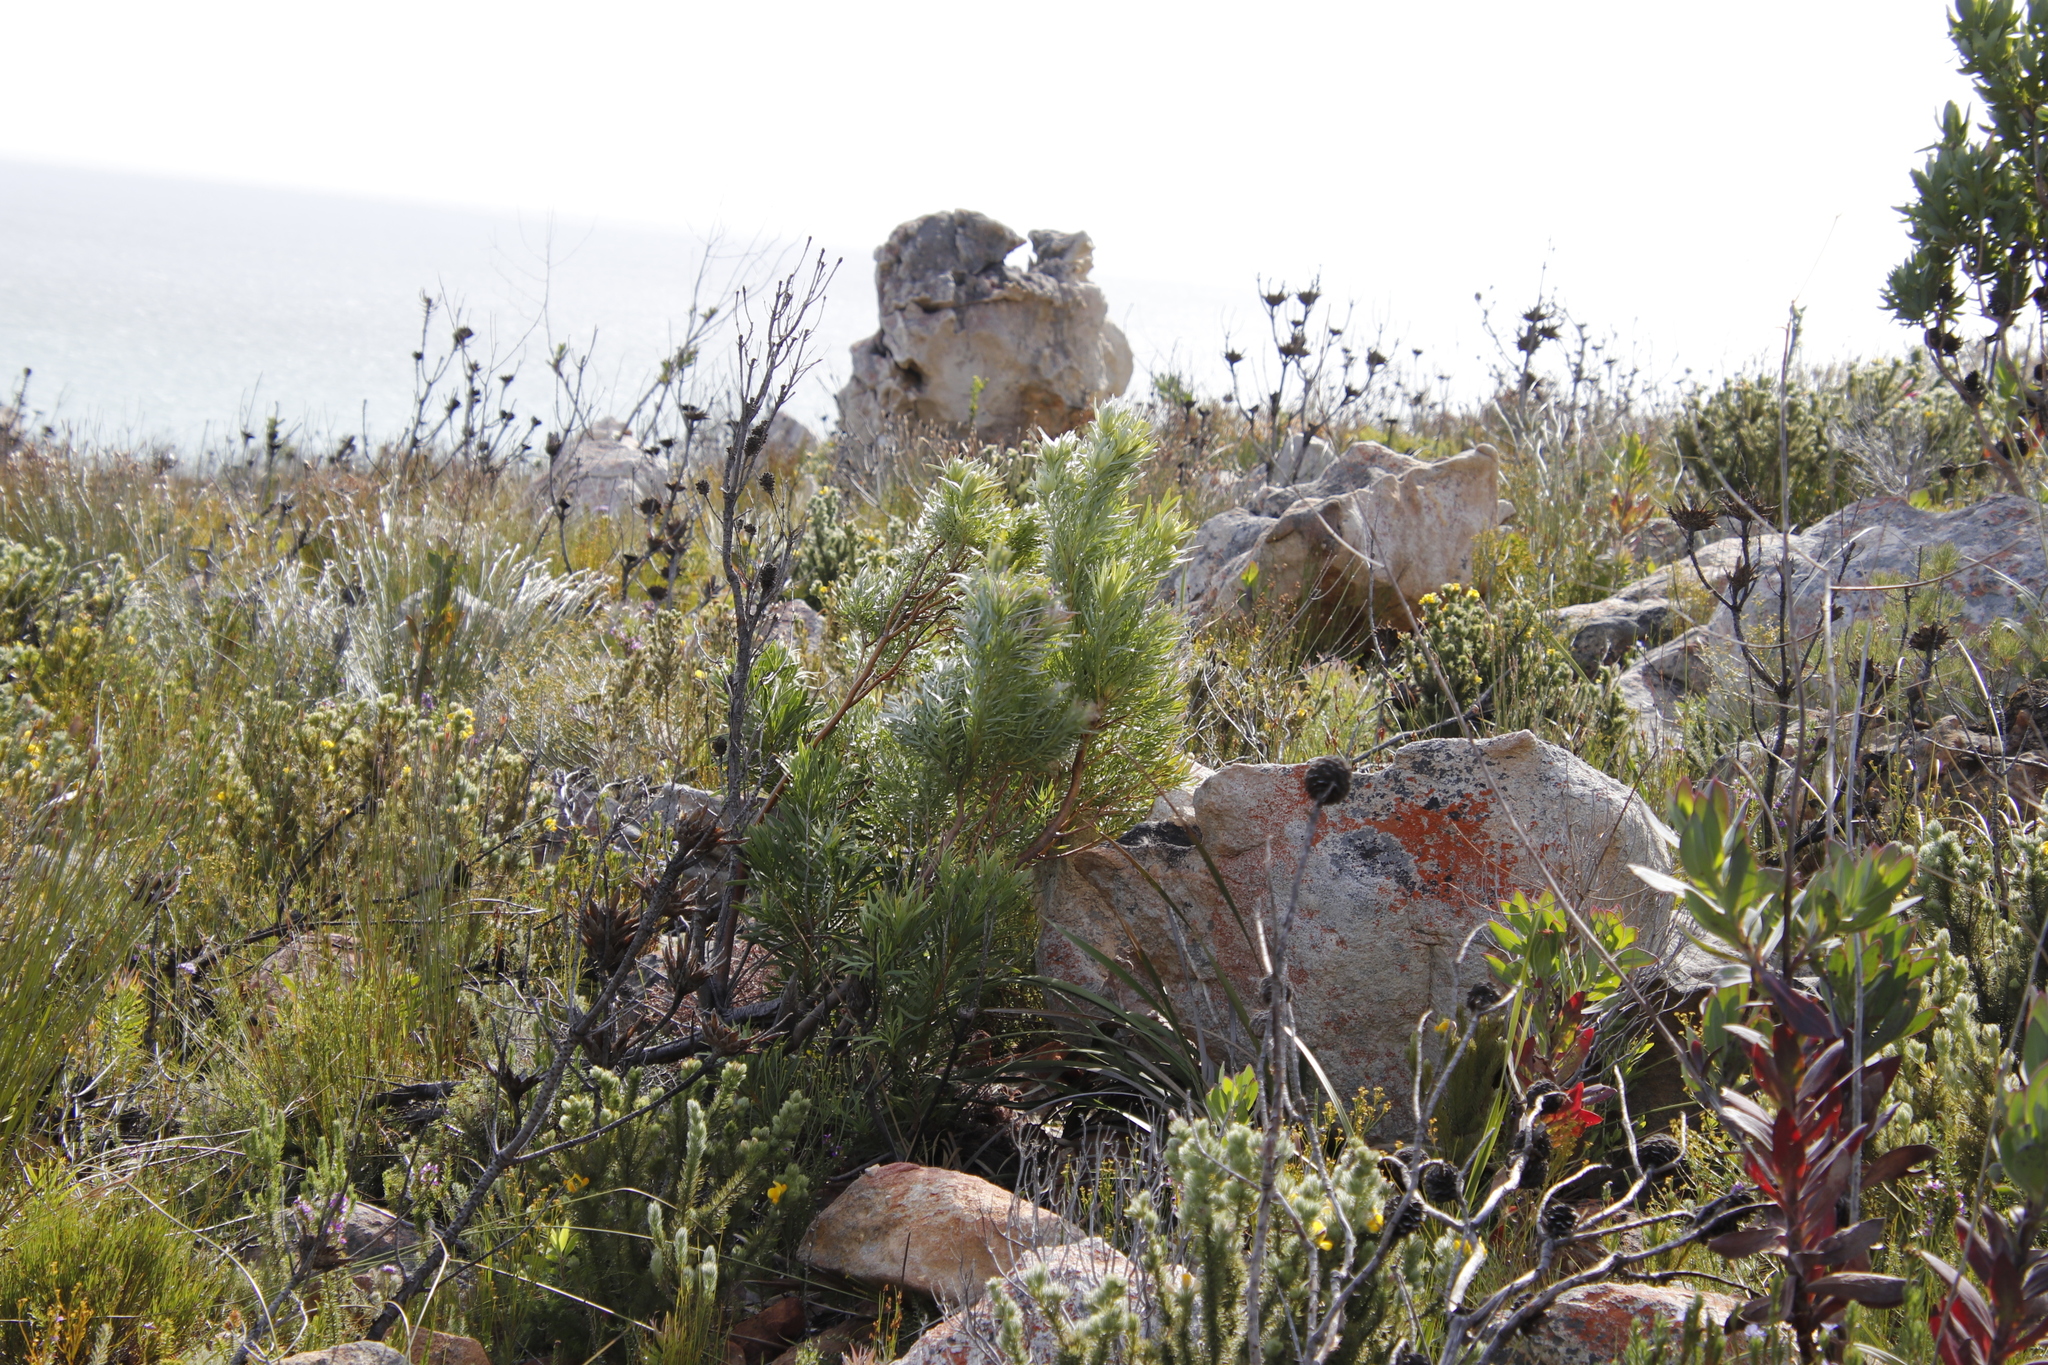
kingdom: Plantae
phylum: Tracheophyta
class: Magnoliopsida
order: Proteales
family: Proteaceae
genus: Leucadendron
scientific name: Leucadendron xanthoconus
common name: Sickle-leaf conebush
